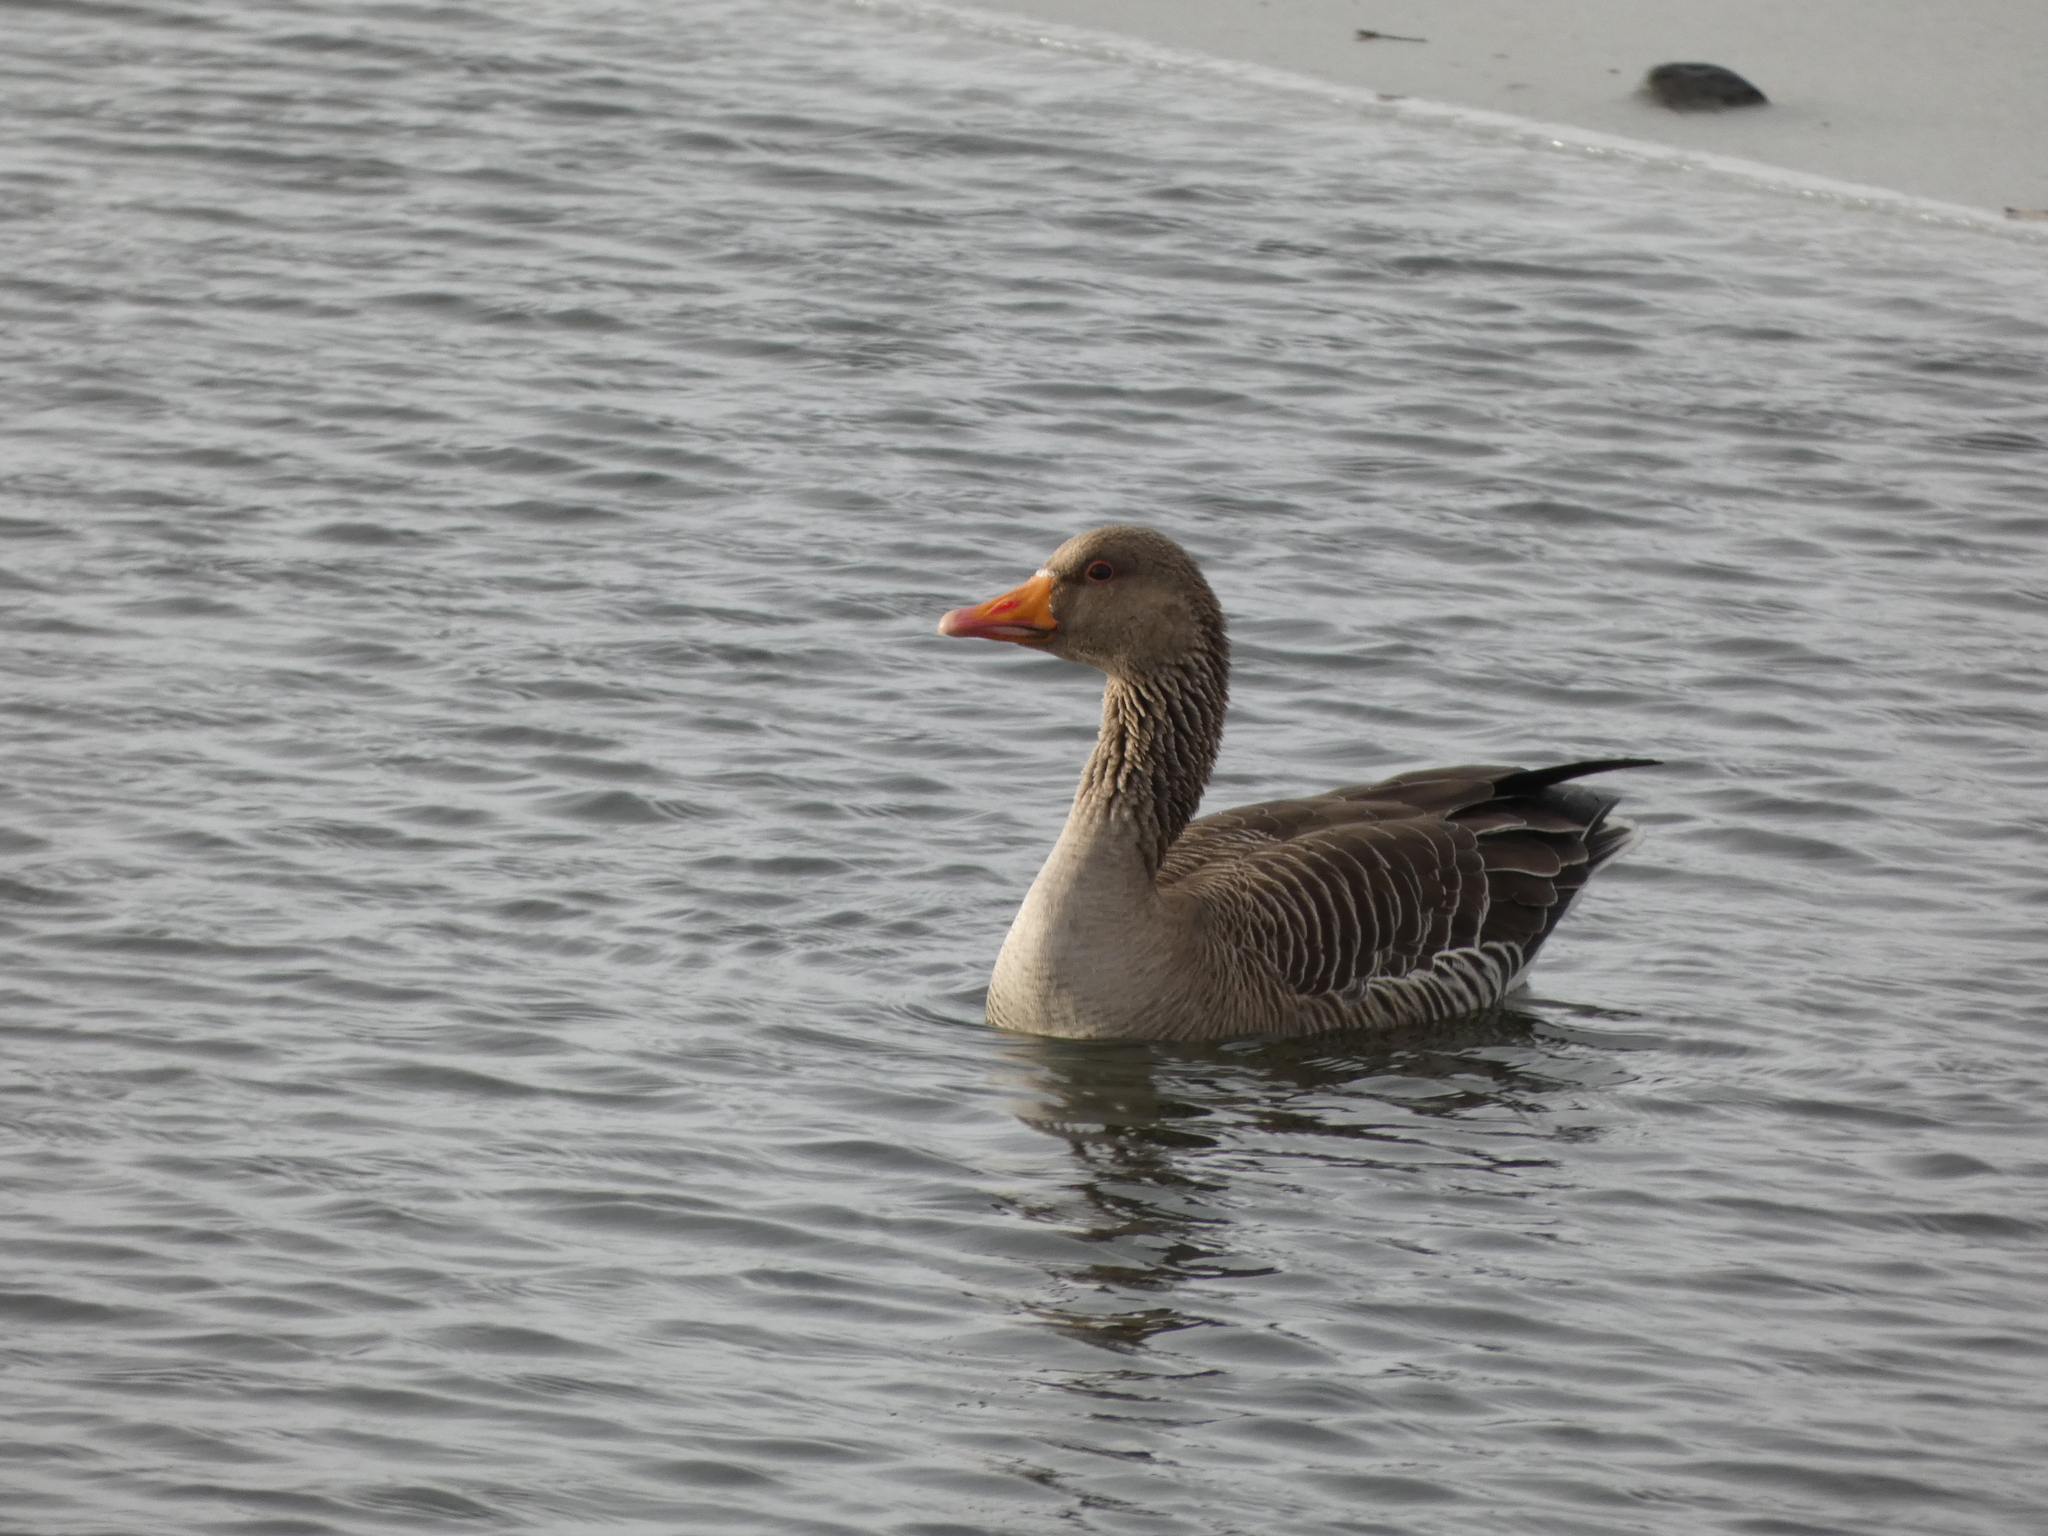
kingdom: Animalia
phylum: Chordata
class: Aves
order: Anseriformes
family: Anatidae
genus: Anser
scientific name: Anser anser
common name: Greylag goose
